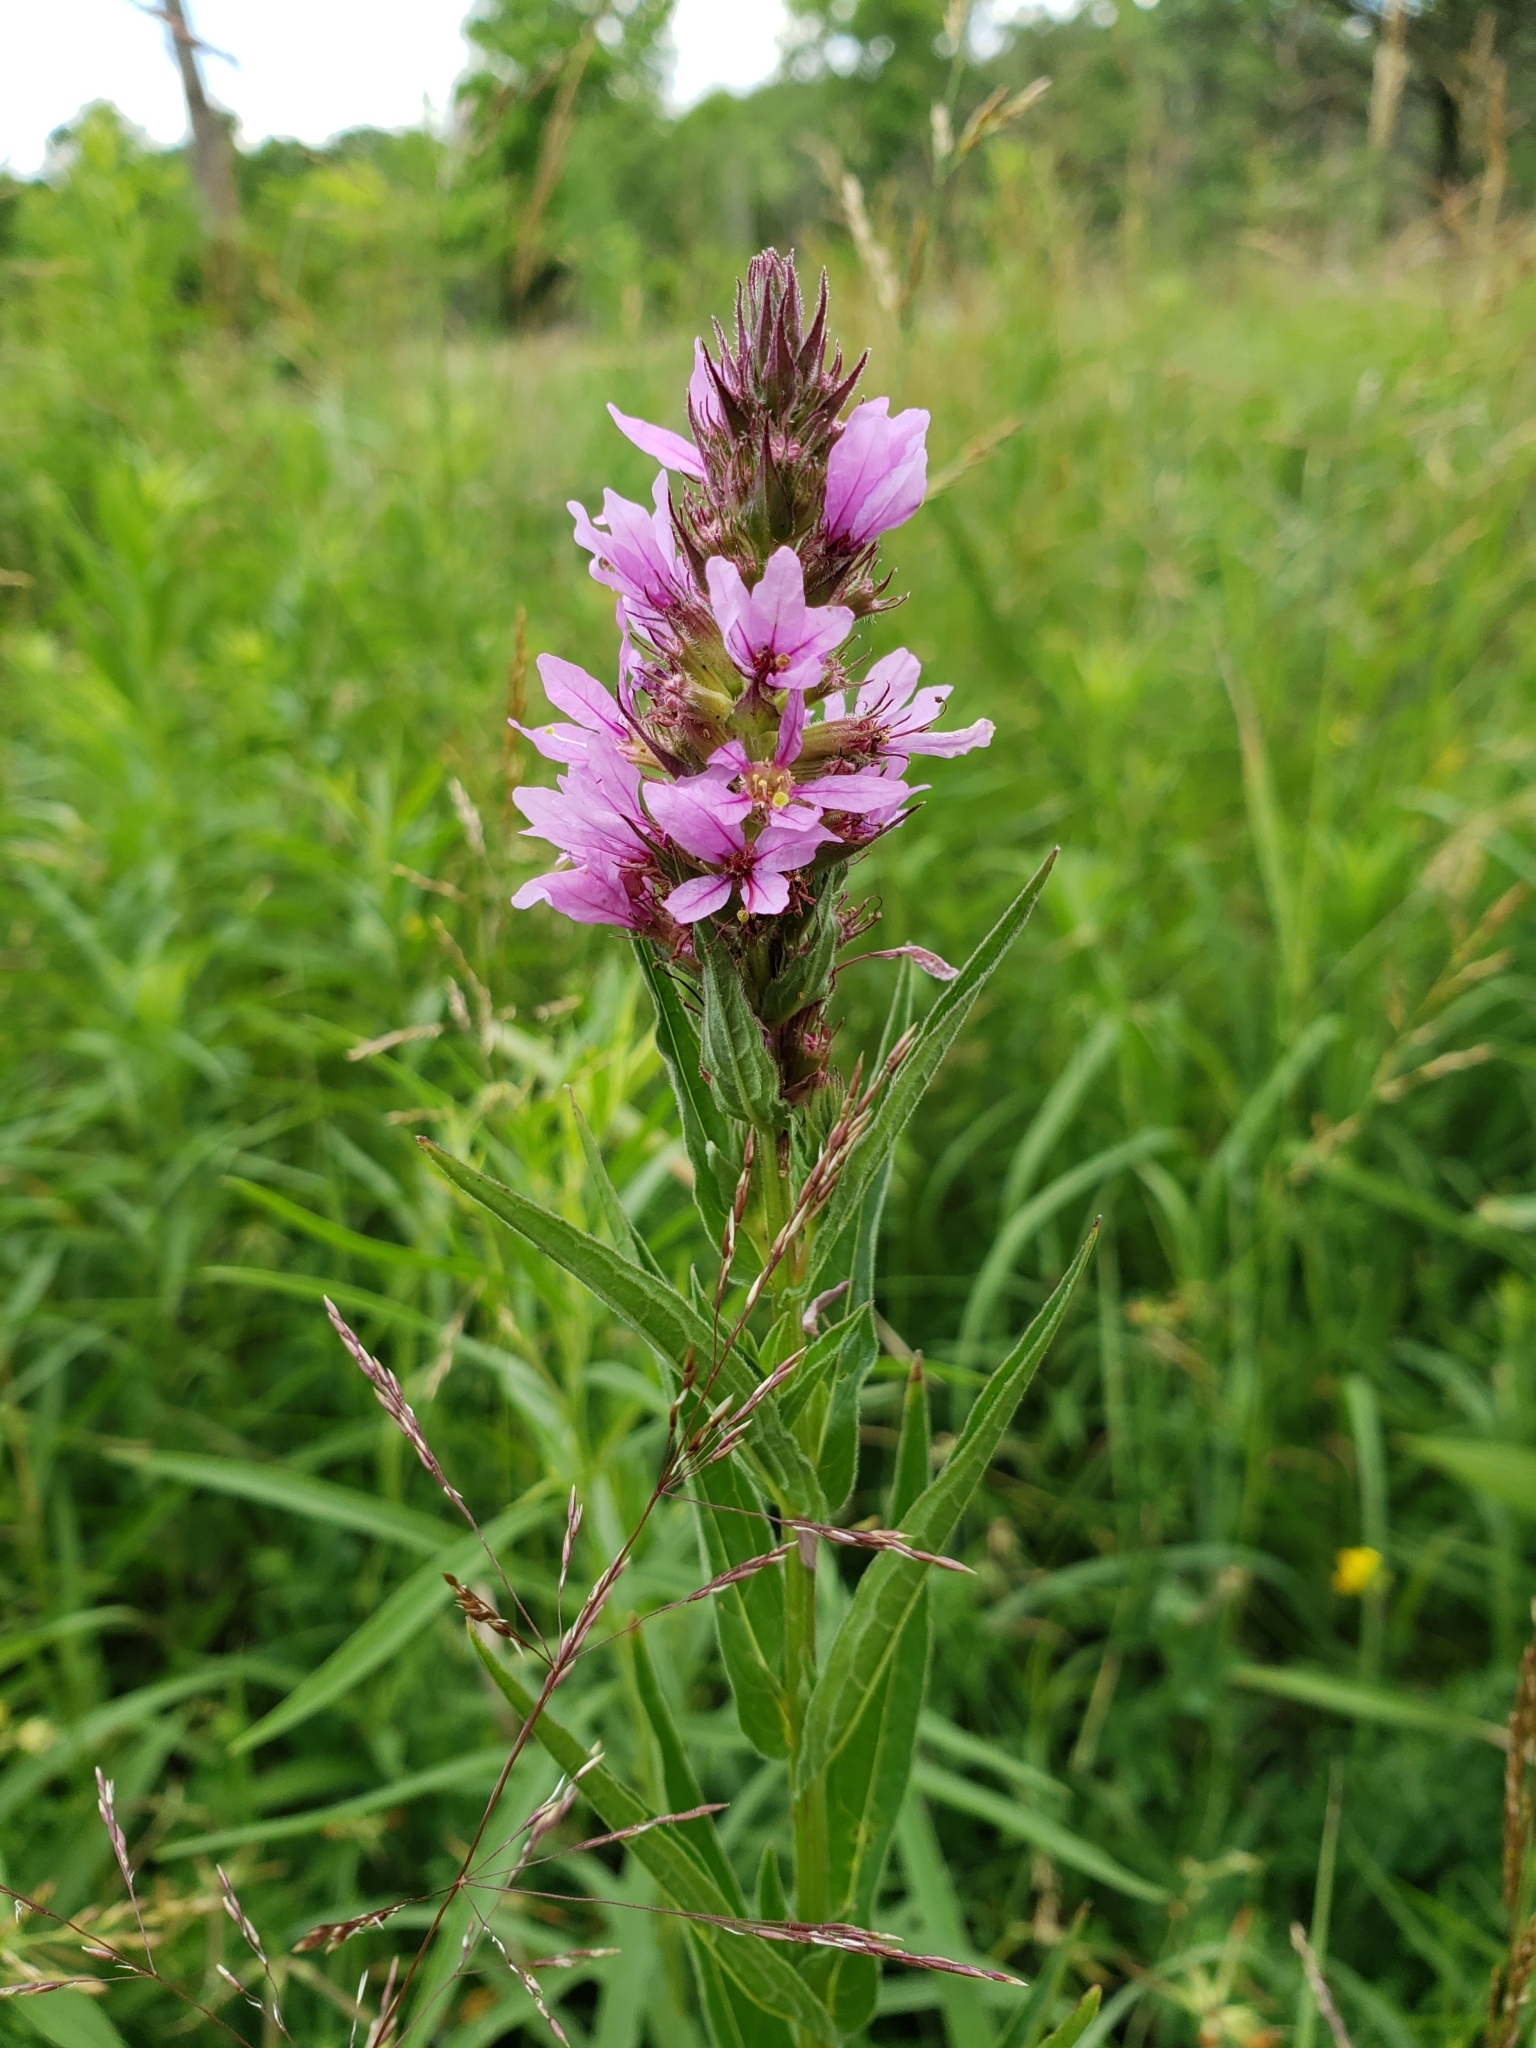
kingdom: Plantae
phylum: Tracheophyta
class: Magnoliopsida
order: Myrtales
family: Lythraceae
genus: Lythrum
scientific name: Lythrum salicaria
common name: Purple loosestrife
